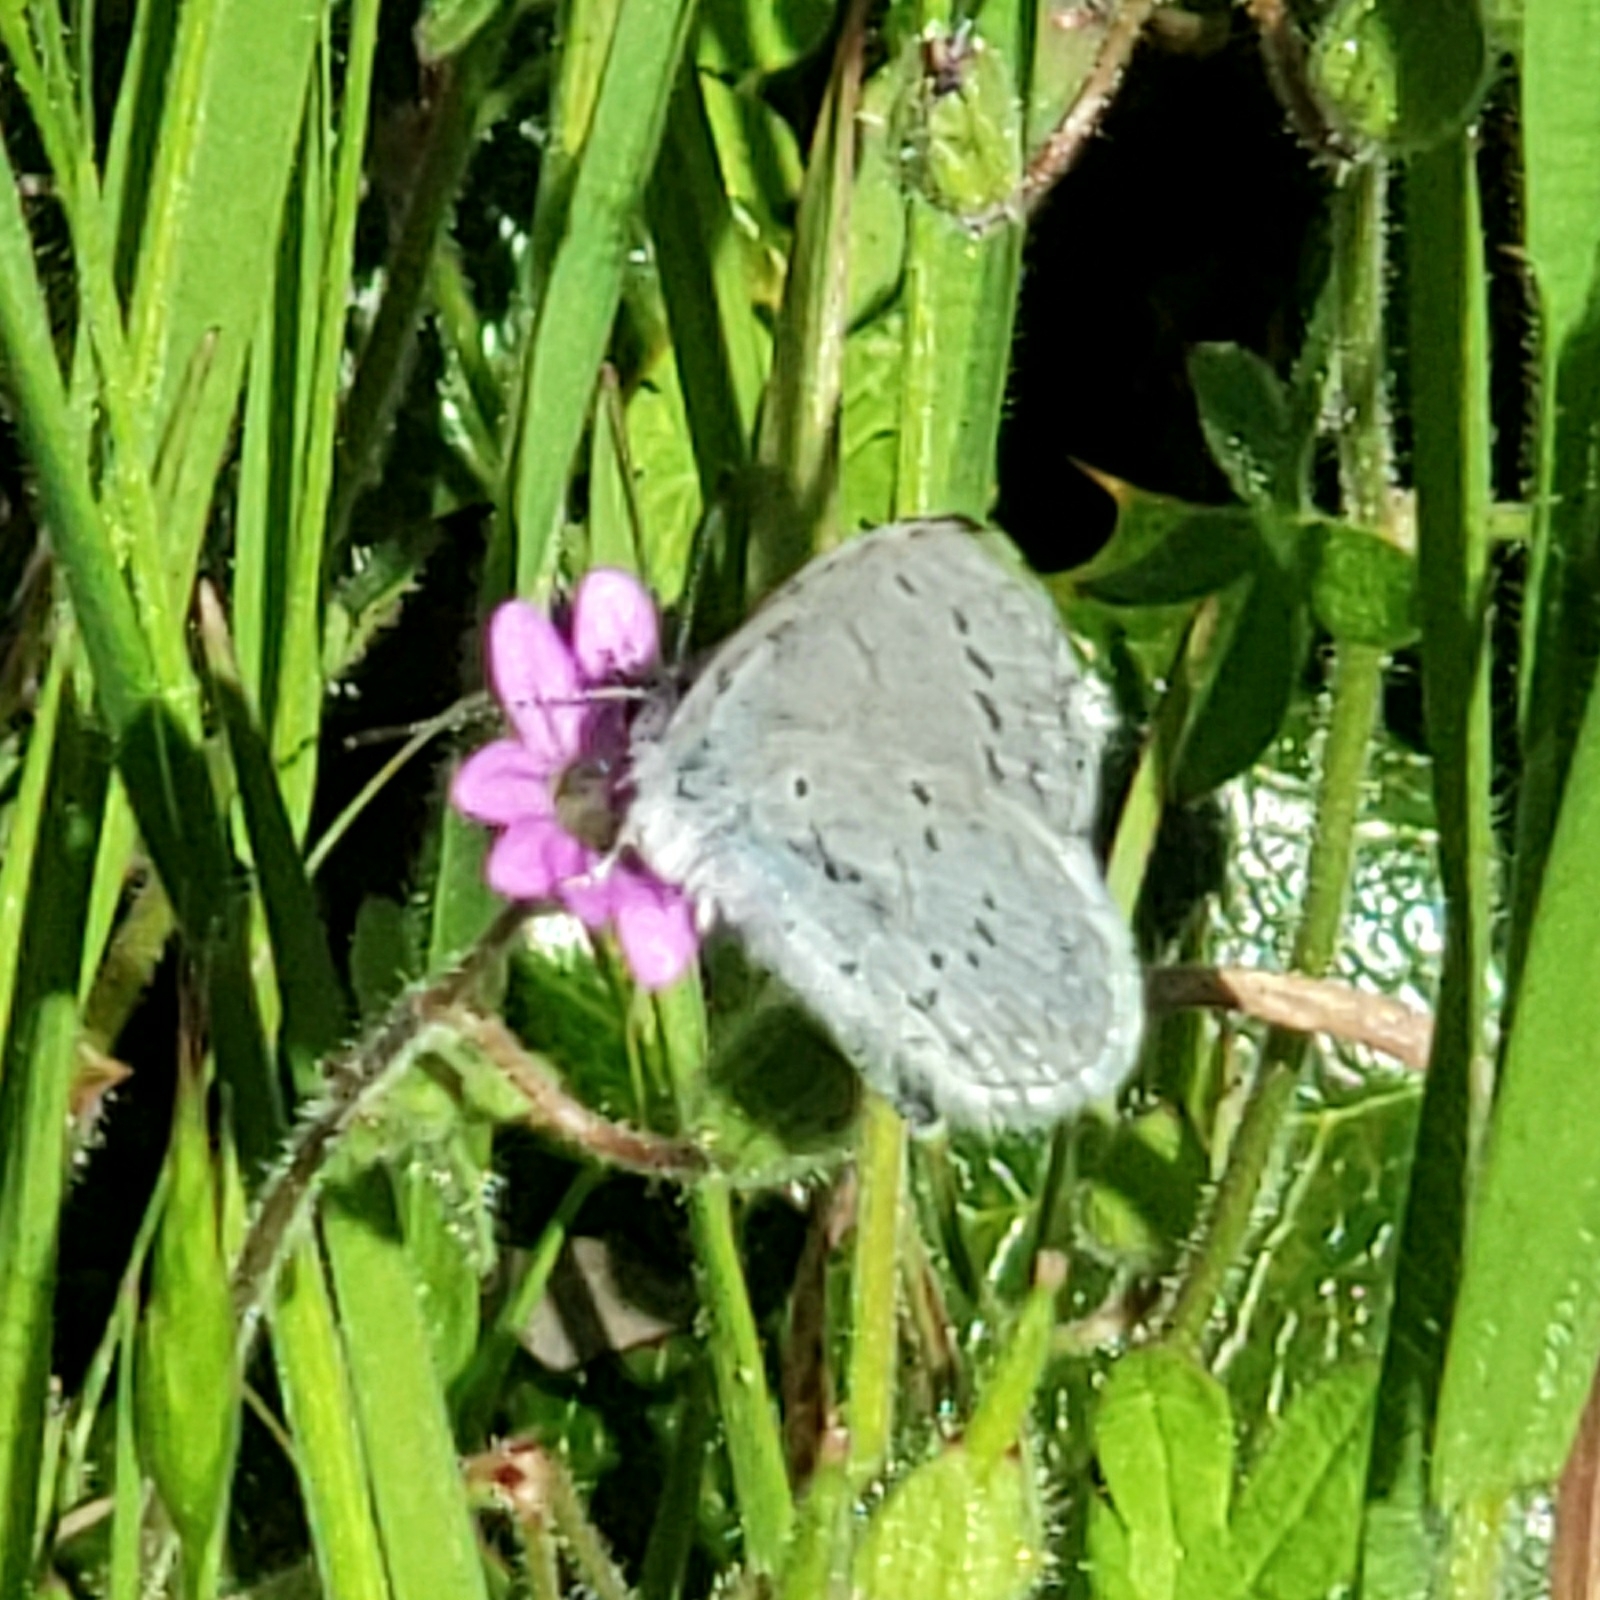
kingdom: Animalia
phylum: Arthropoda
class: Insecta
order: Lepidoptera
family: Lycaenidae
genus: Celastrina
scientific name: Celastrina ladon
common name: Spring azure
